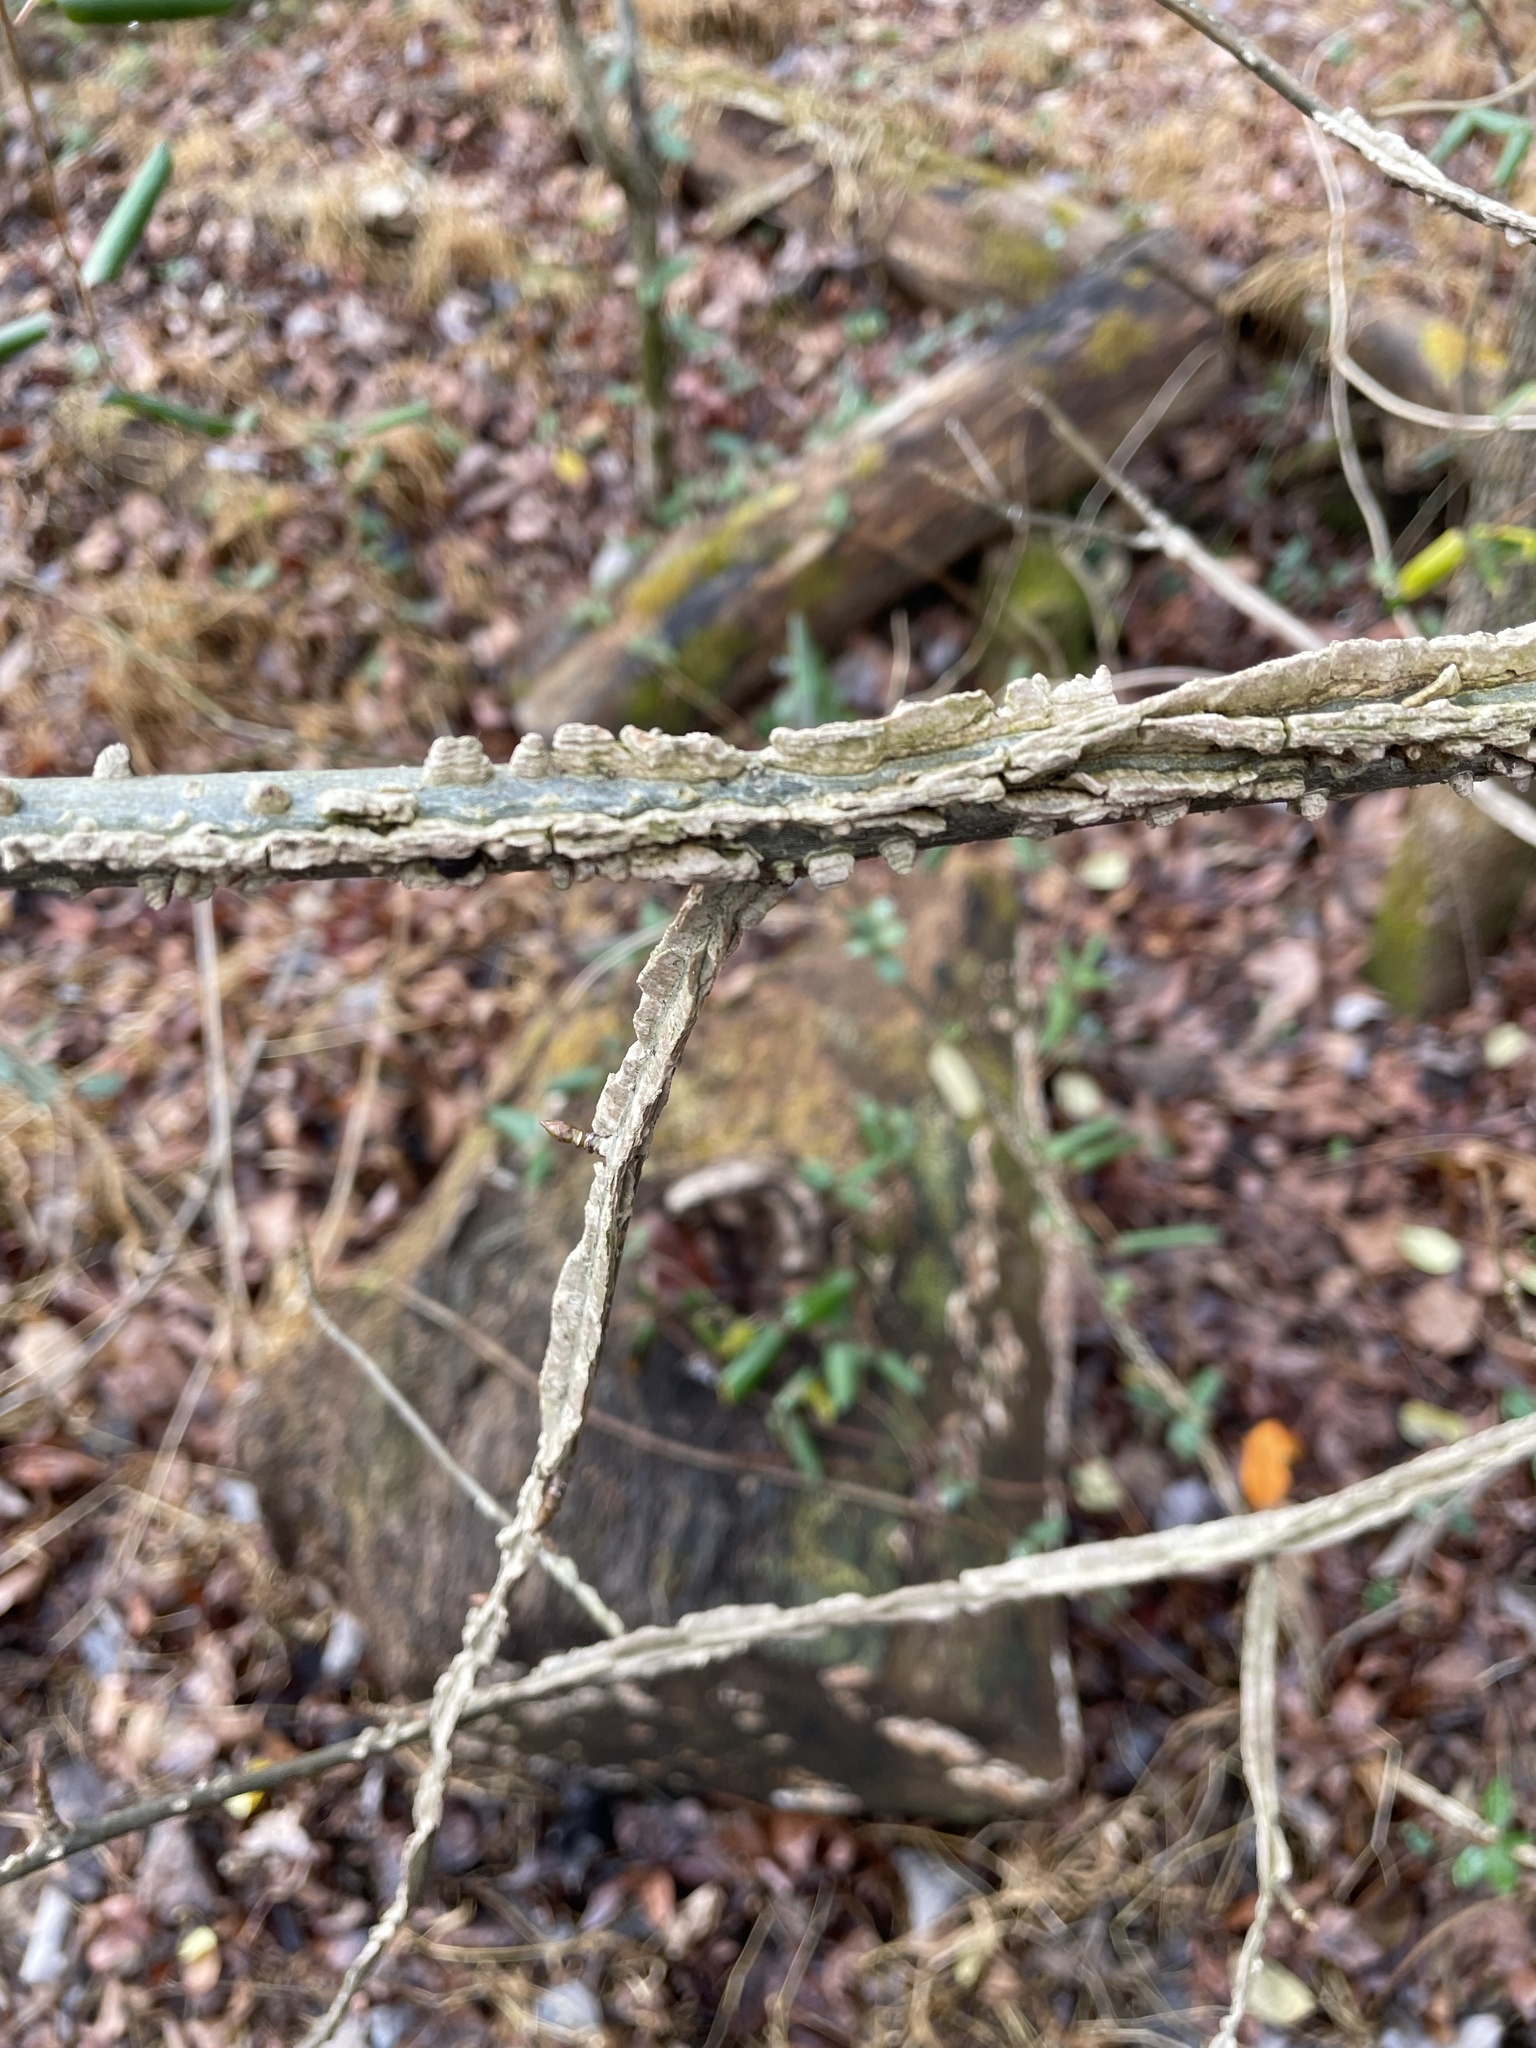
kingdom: Plantae
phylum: Tracheophyta
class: Magnoliopsida
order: Rosales
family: Ulmaceae
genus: Ulmus
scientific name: Ulmus alata
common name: Winged elm
